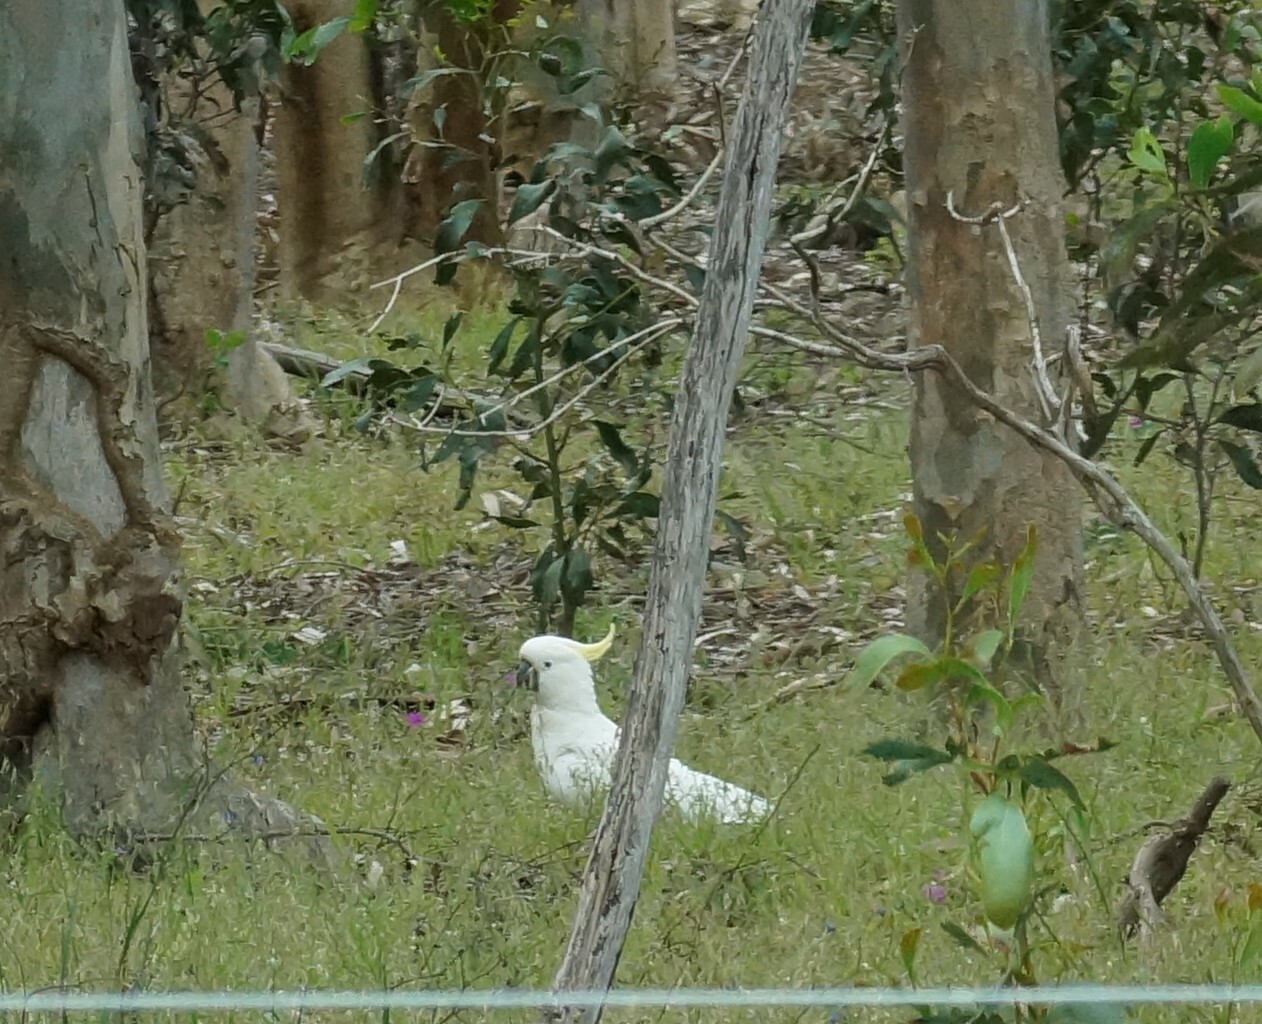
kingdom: Animalia
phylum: Chordata
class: Aves
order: Psittaciformes
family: Psittacidae
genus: Cacatua
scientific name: Cacatua galerita
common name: Sulphur-crested cockatoo
